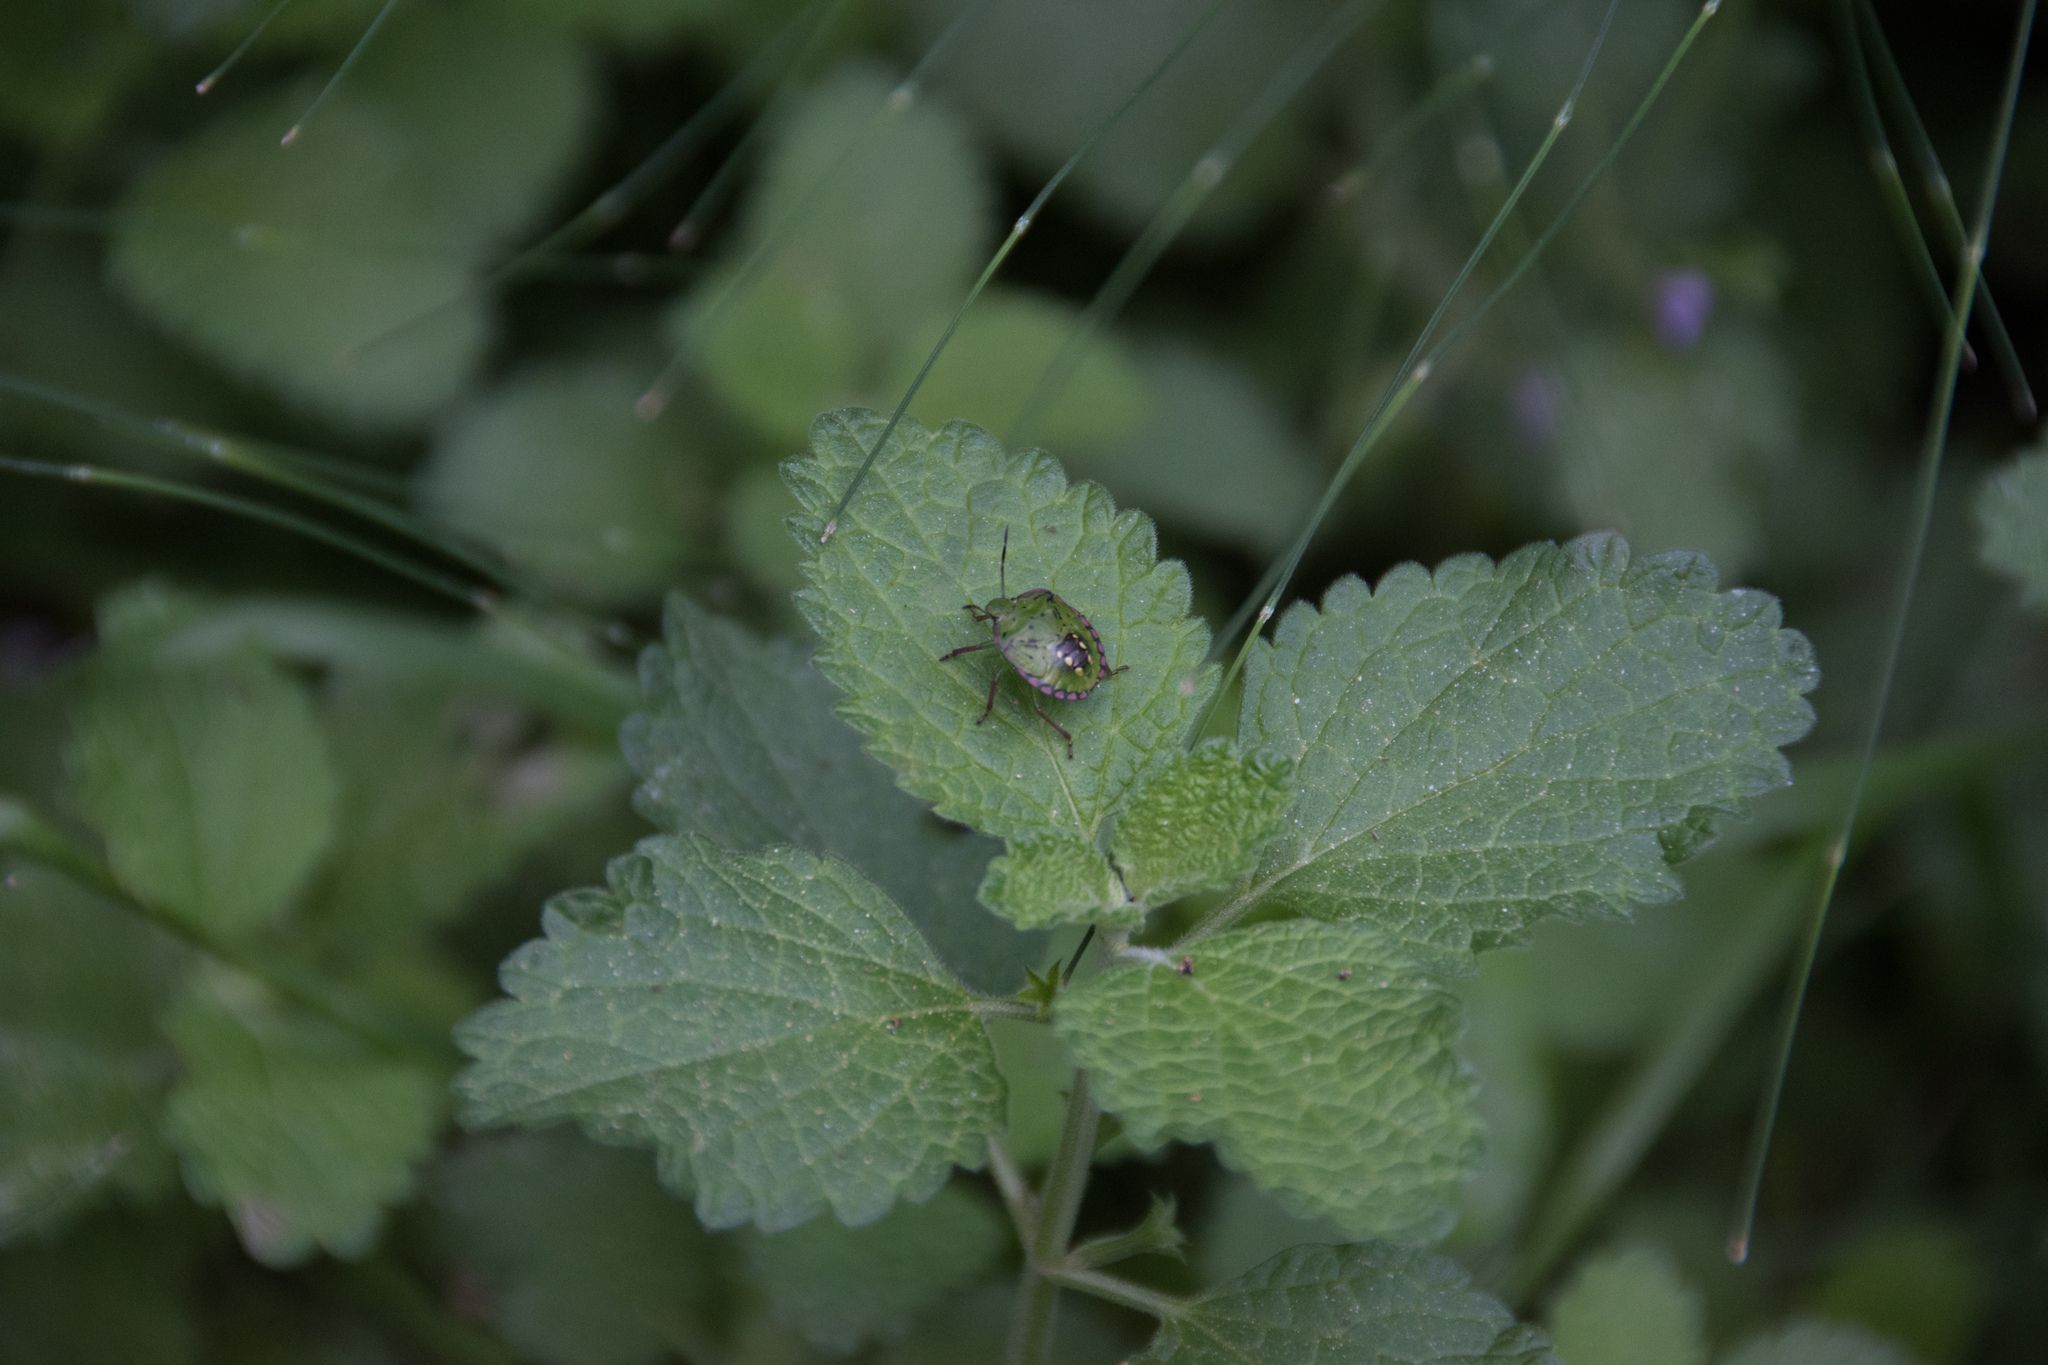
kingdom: Animalia
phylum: Arthropoda
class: Insecta
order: Hemiptera
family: Pentatomidae
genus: Nezara
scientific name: Nezara viridula
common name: Southern green stink bug
